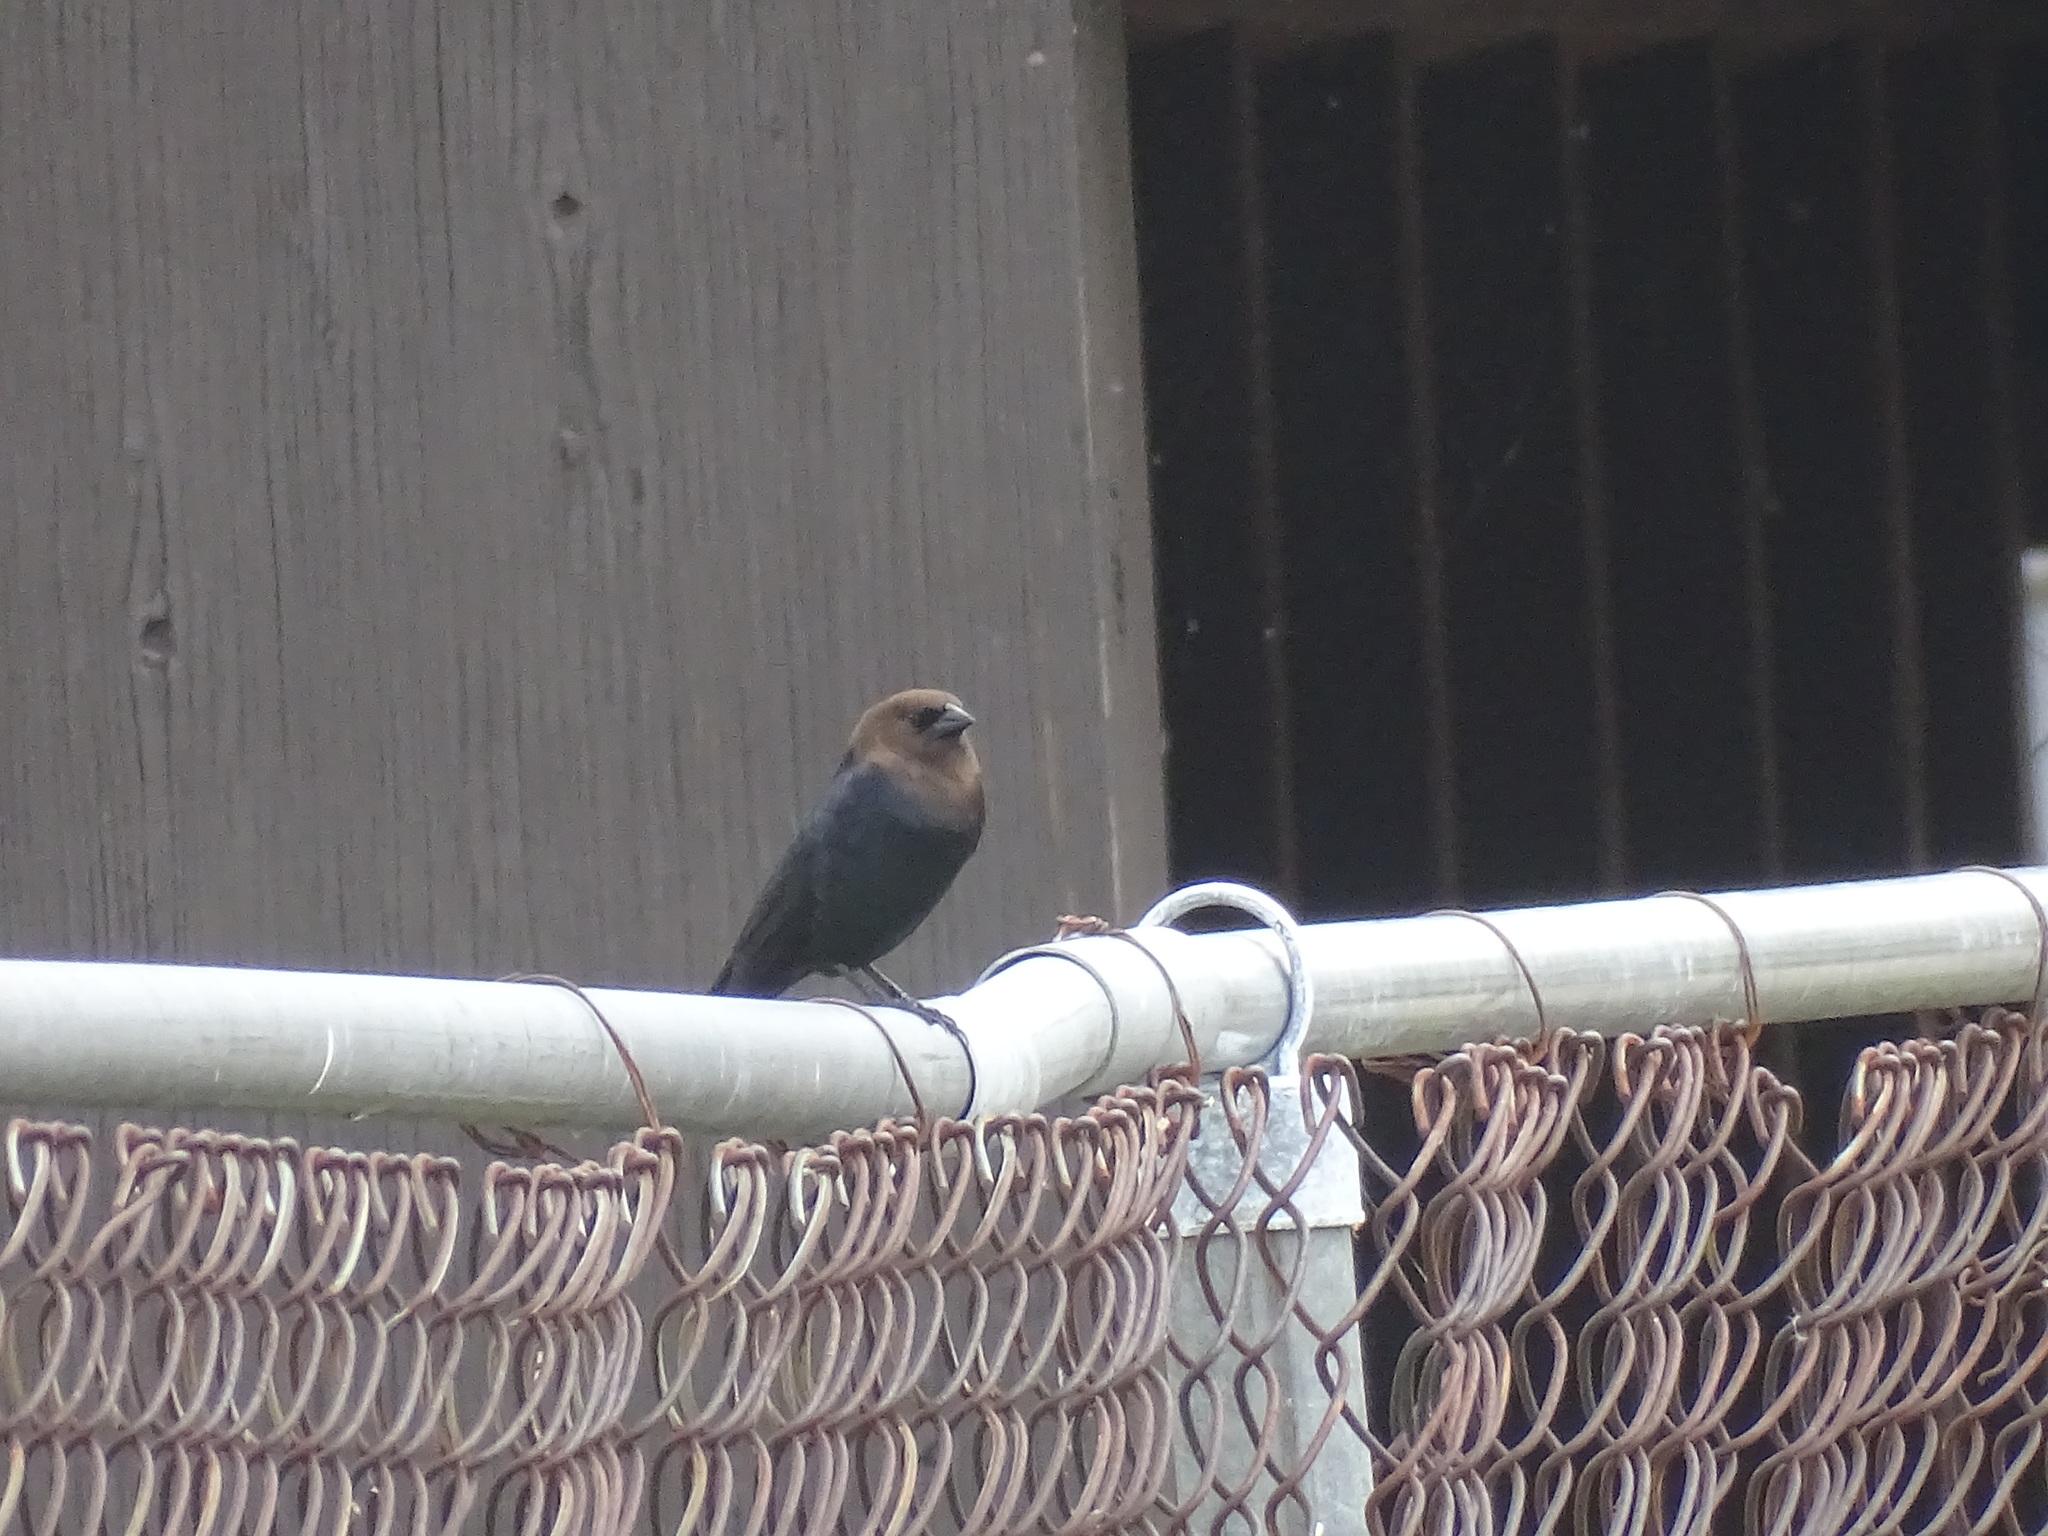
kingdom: Animalia
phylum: Chordata
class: Aves
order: Passeriformes
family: Icteridae
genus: Molothrus
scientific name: Molothrus ater
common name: Brown-headed cowbird
